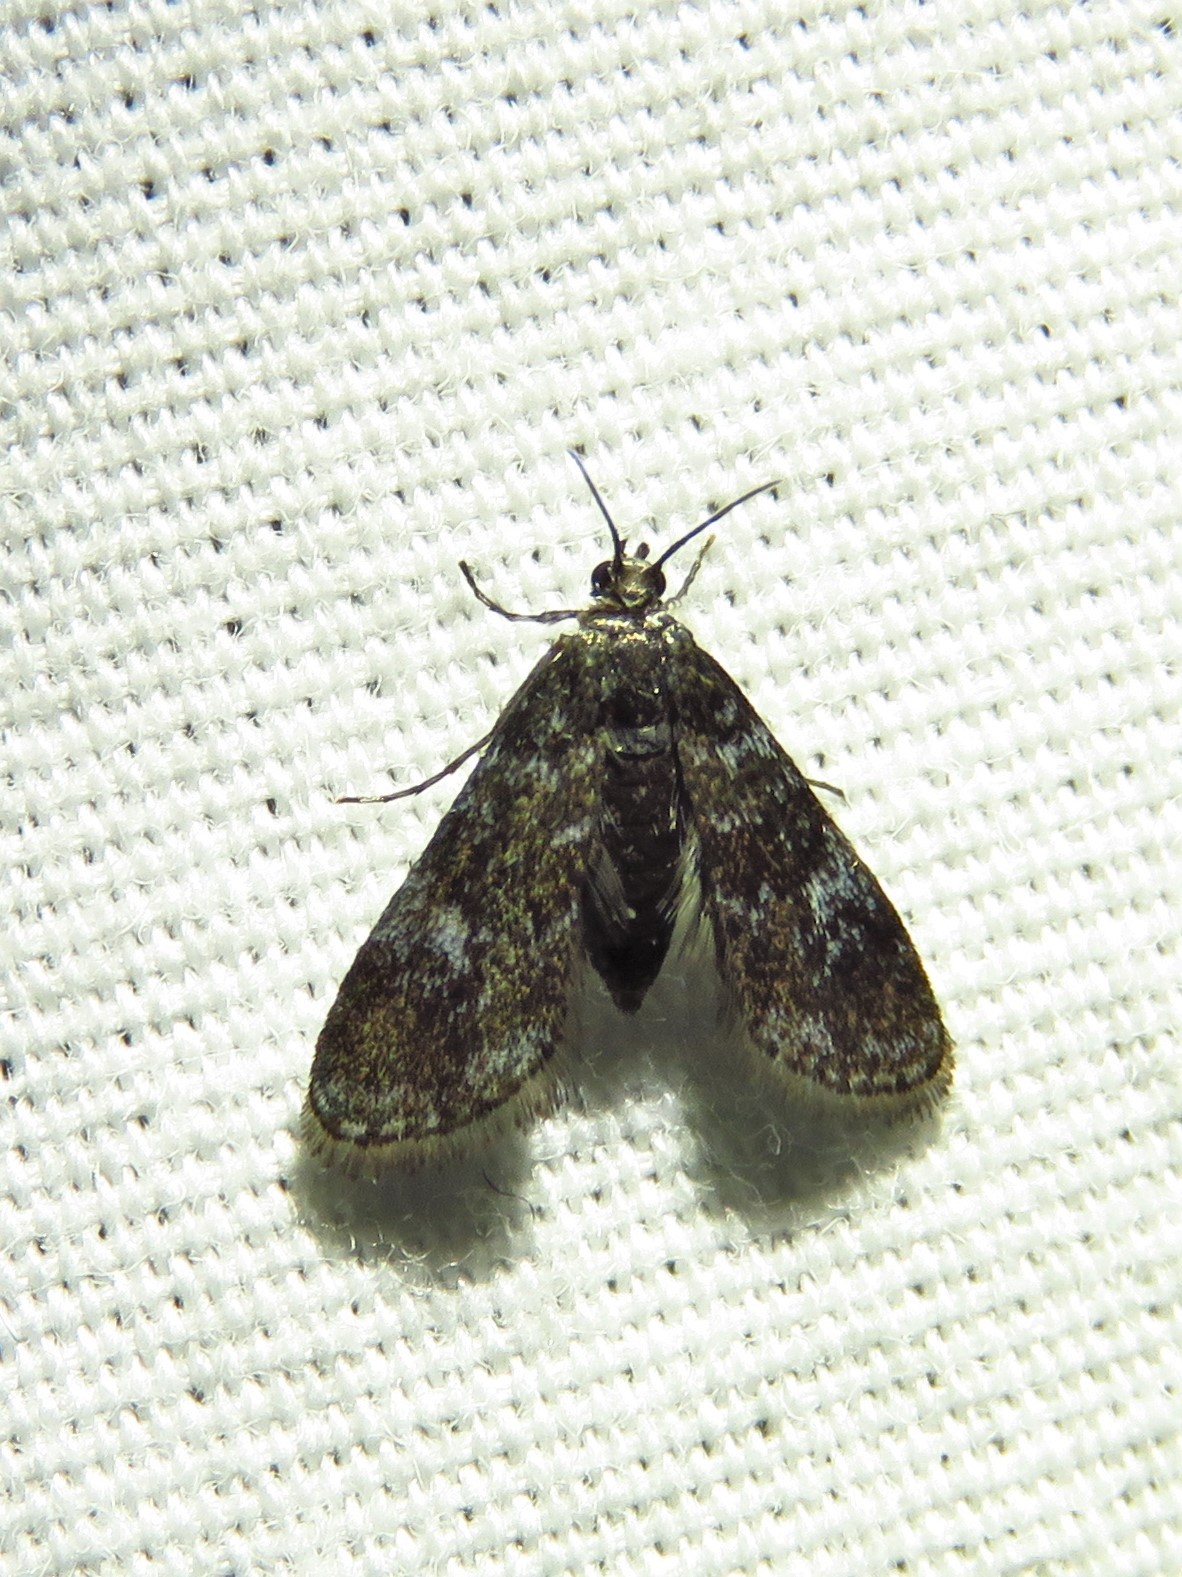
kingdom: Animalia
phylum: Arthropoda
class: Insecta
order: Lepidoptera
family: Crambidae
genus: Elophila
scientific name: Elophila tinealis
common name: Black duckweed moth
